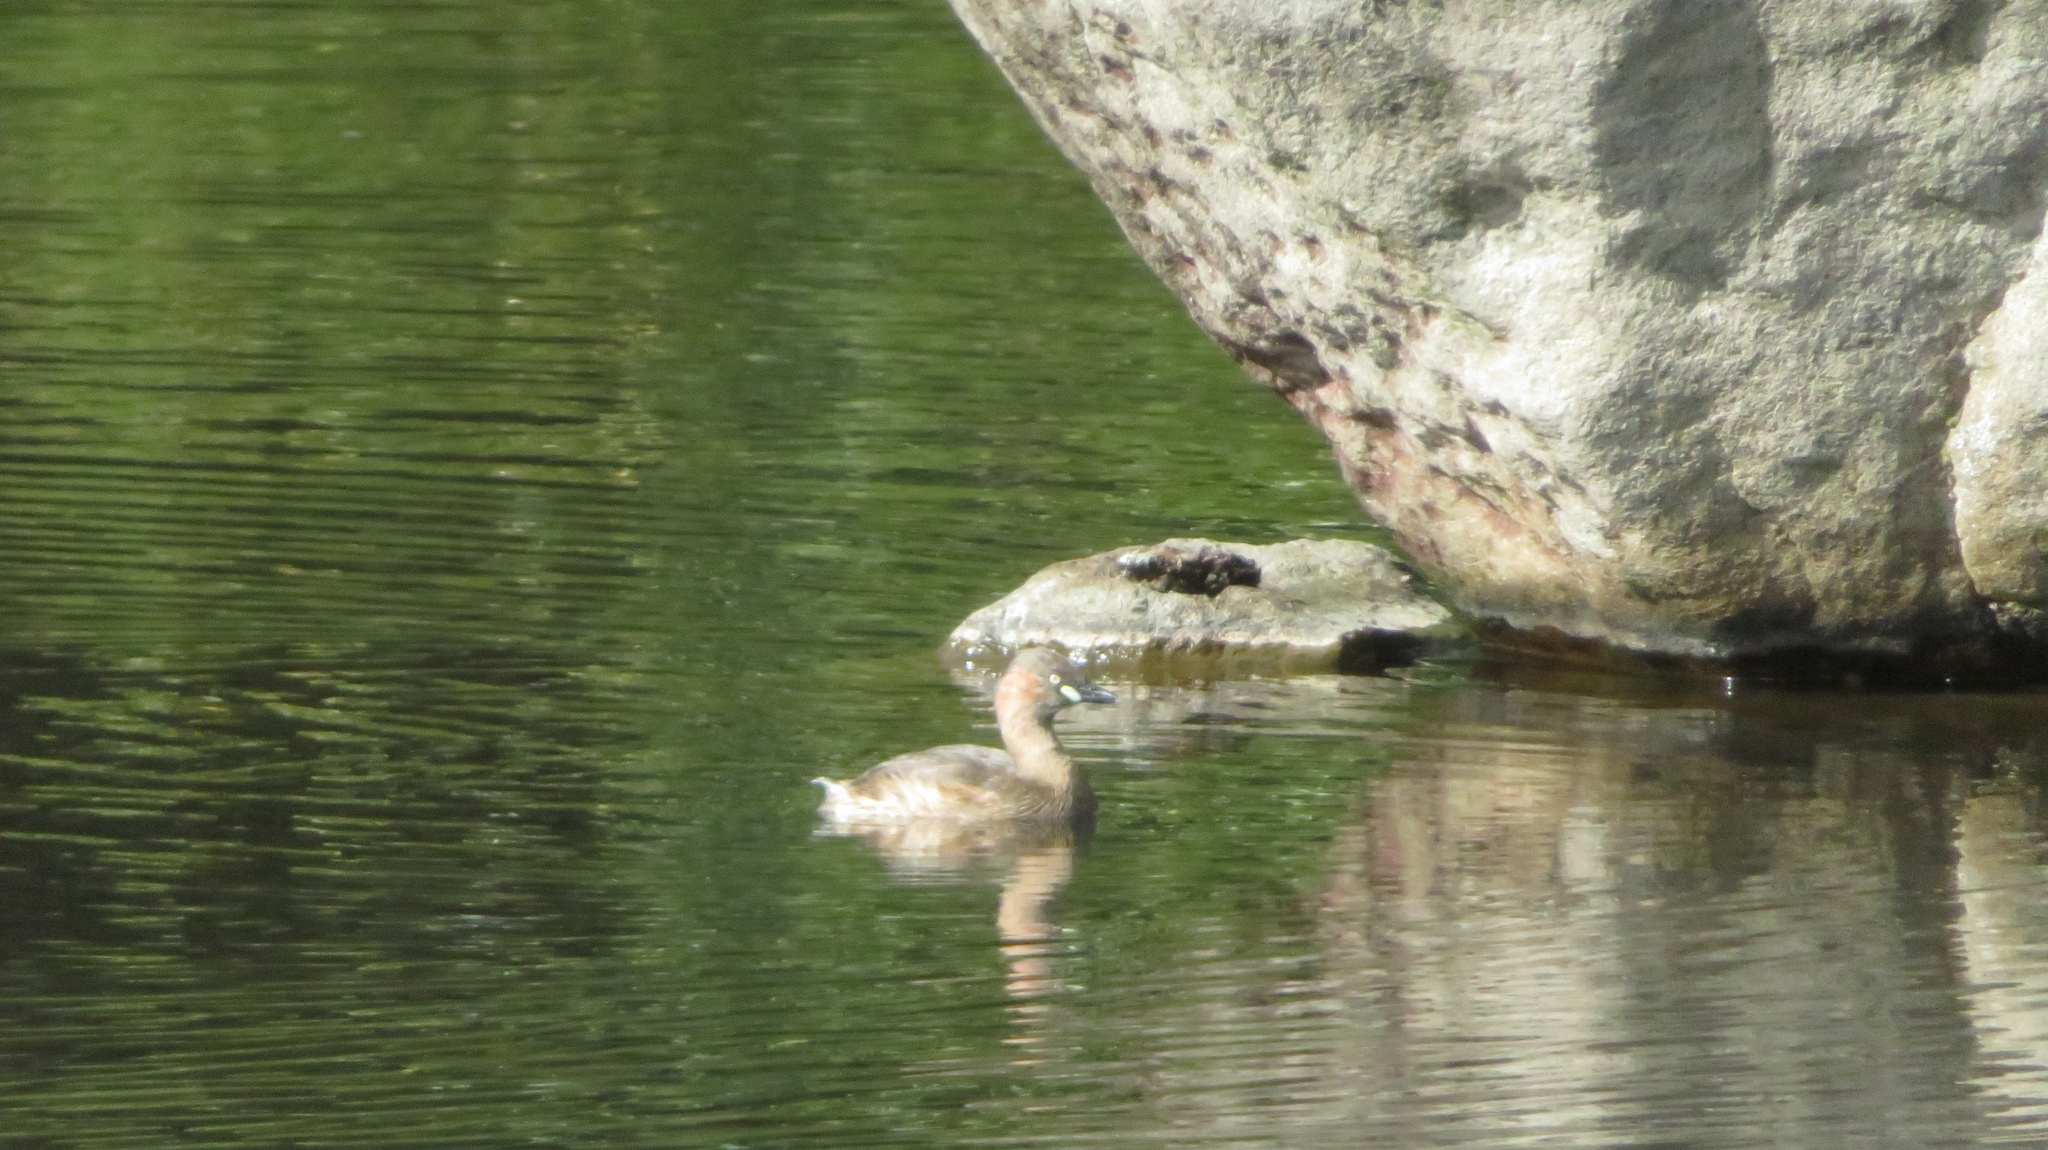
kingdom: Animalia
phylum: Chordata
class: Aves
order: Podicipediformes
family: Podicipedidae
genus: Tachybaptus
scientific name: Tachybaptus ruficollis
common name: Little grebe
